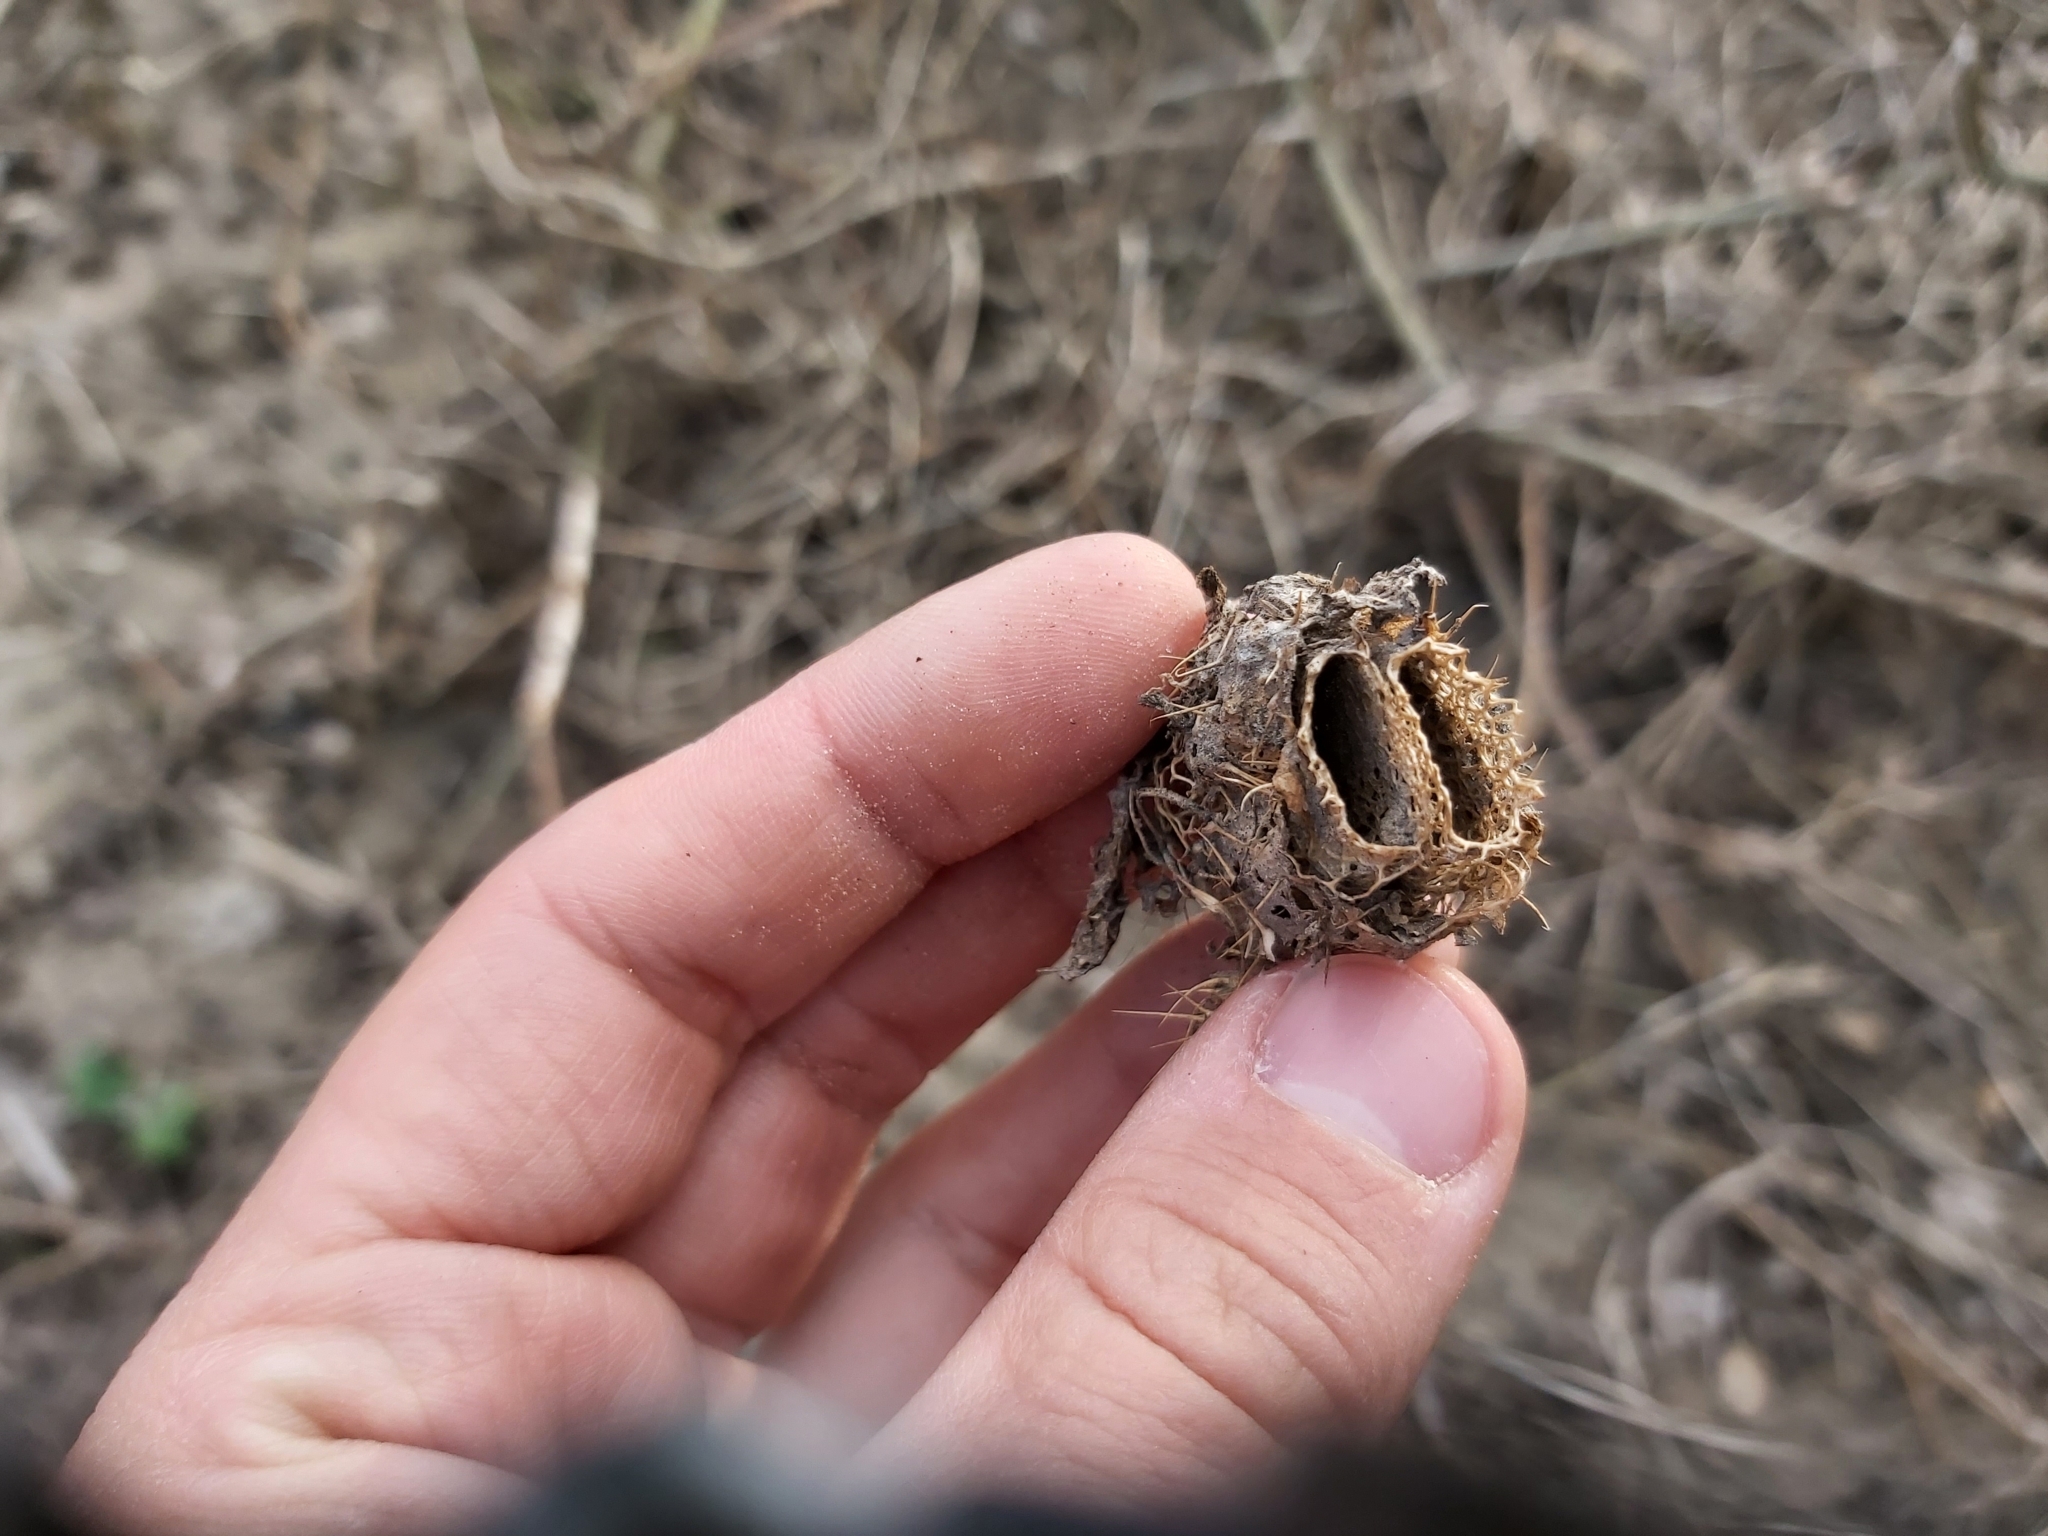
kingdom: Plantae
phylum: Tracheophyta
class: Magnoliopsida
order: Cucurbitales
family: Cucurbitaceae
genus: Echinocystis
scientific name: Echinocystis lobata
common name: Wild cucumber
